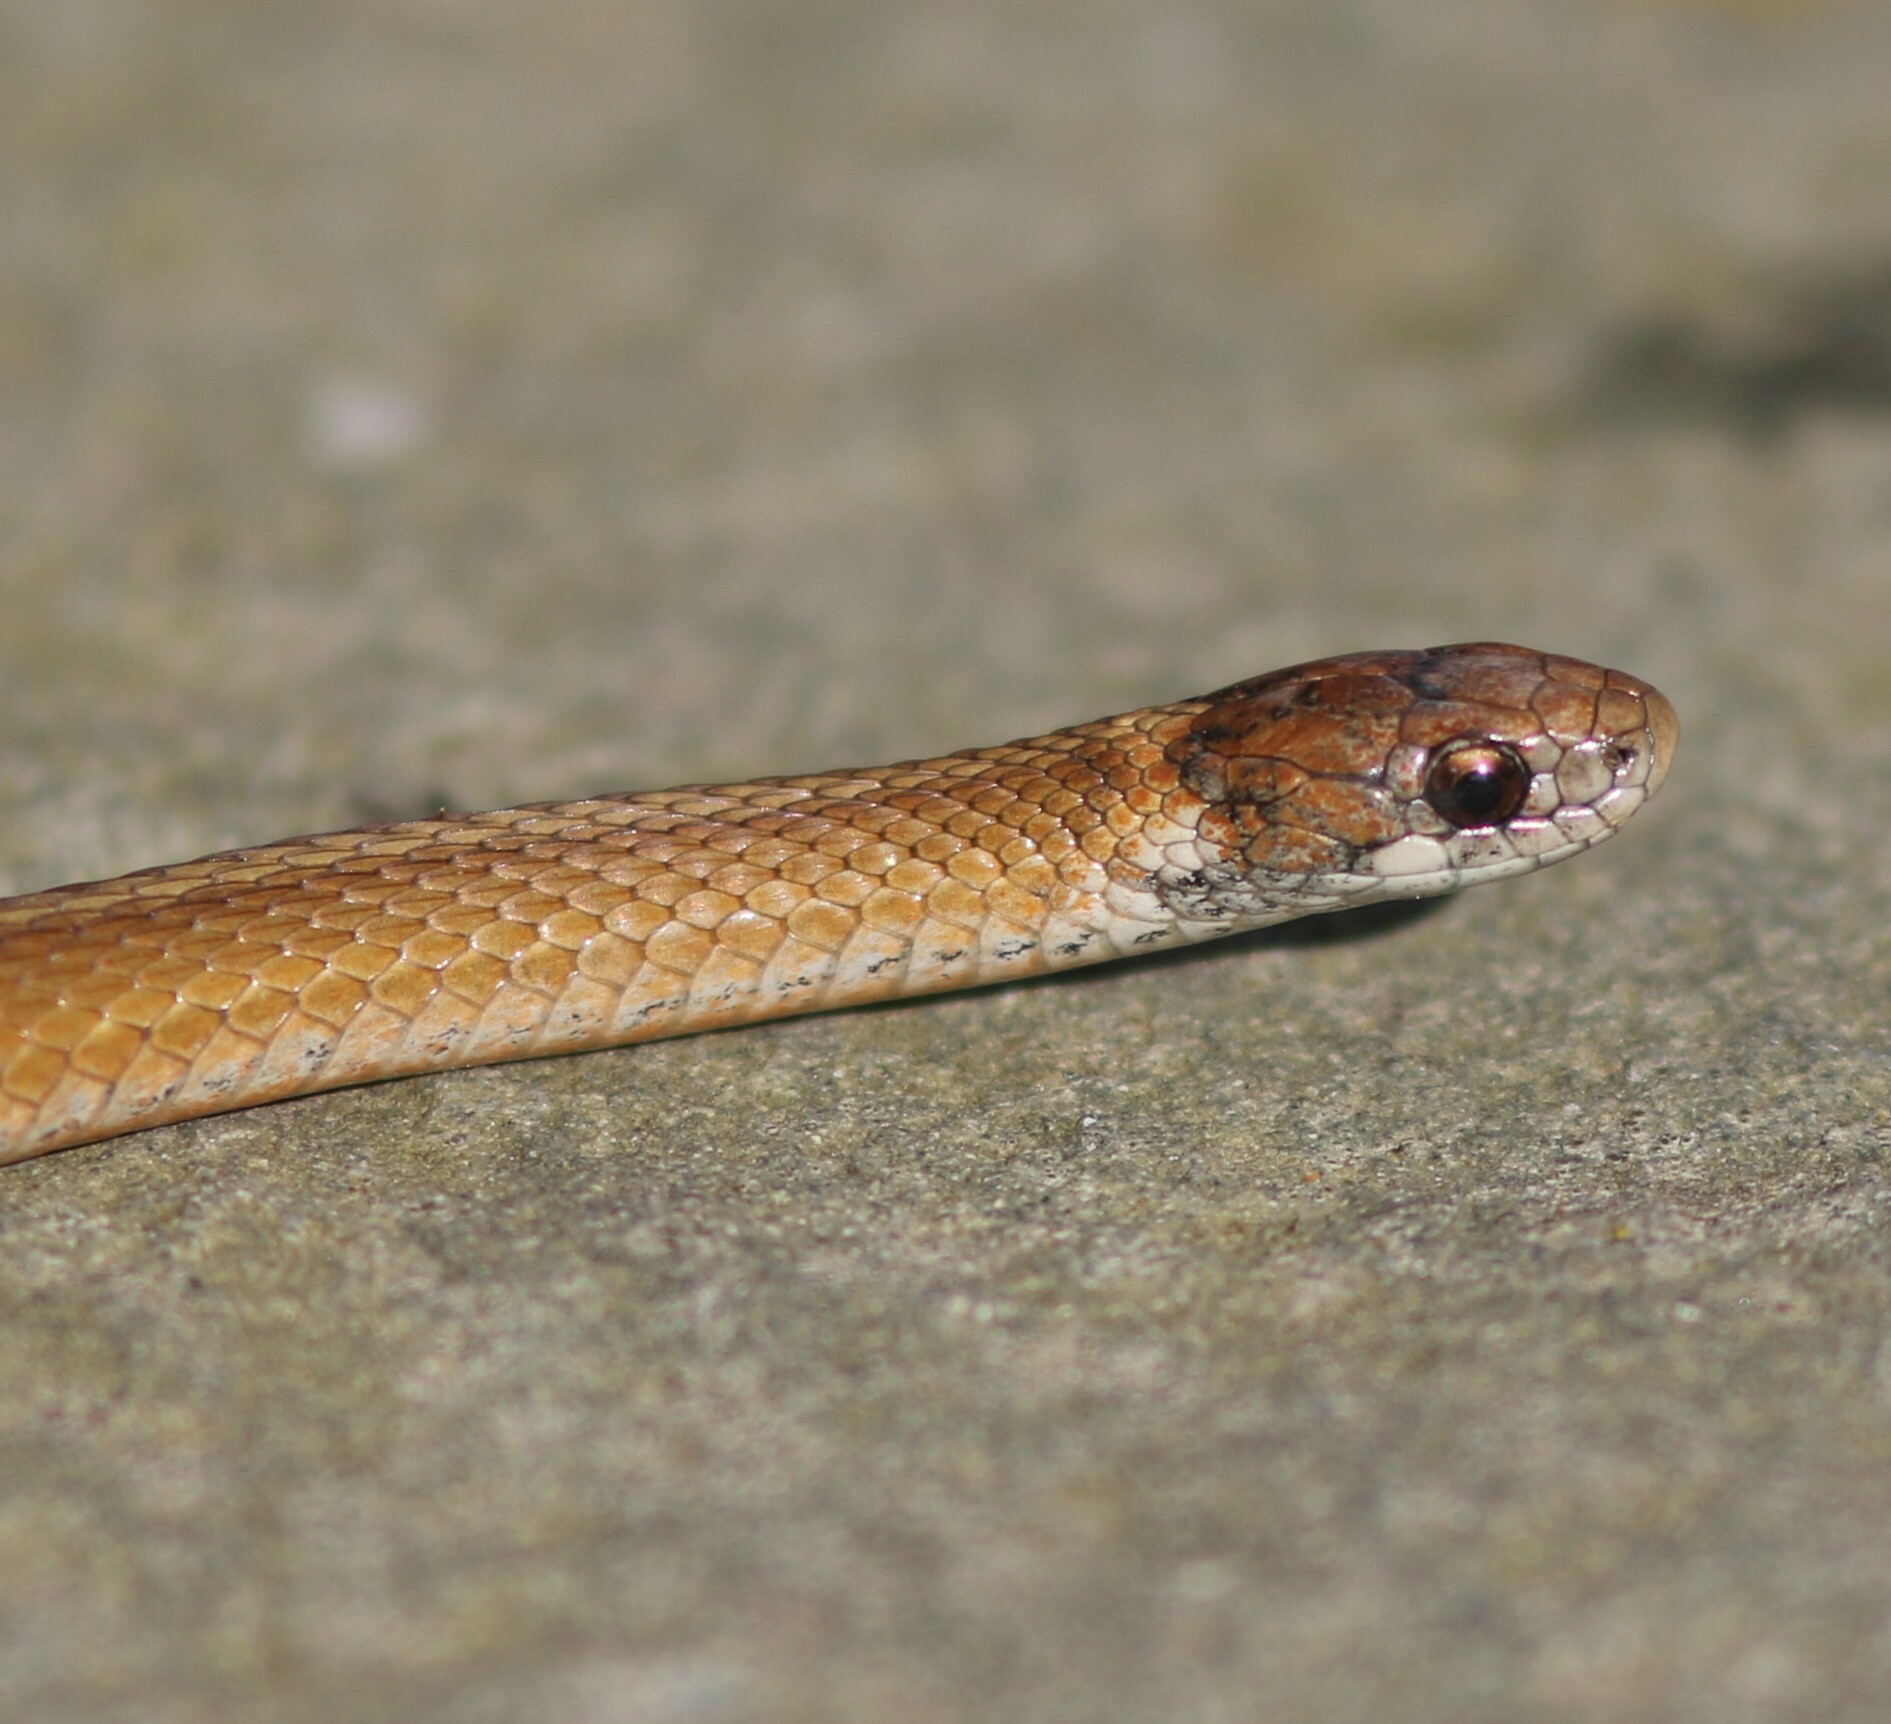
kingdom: Animalia
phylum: Chordata
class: Squamata
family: Colubridae
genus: Storeria
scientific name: Storeria occipitomaculata
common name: Redbelly snake
